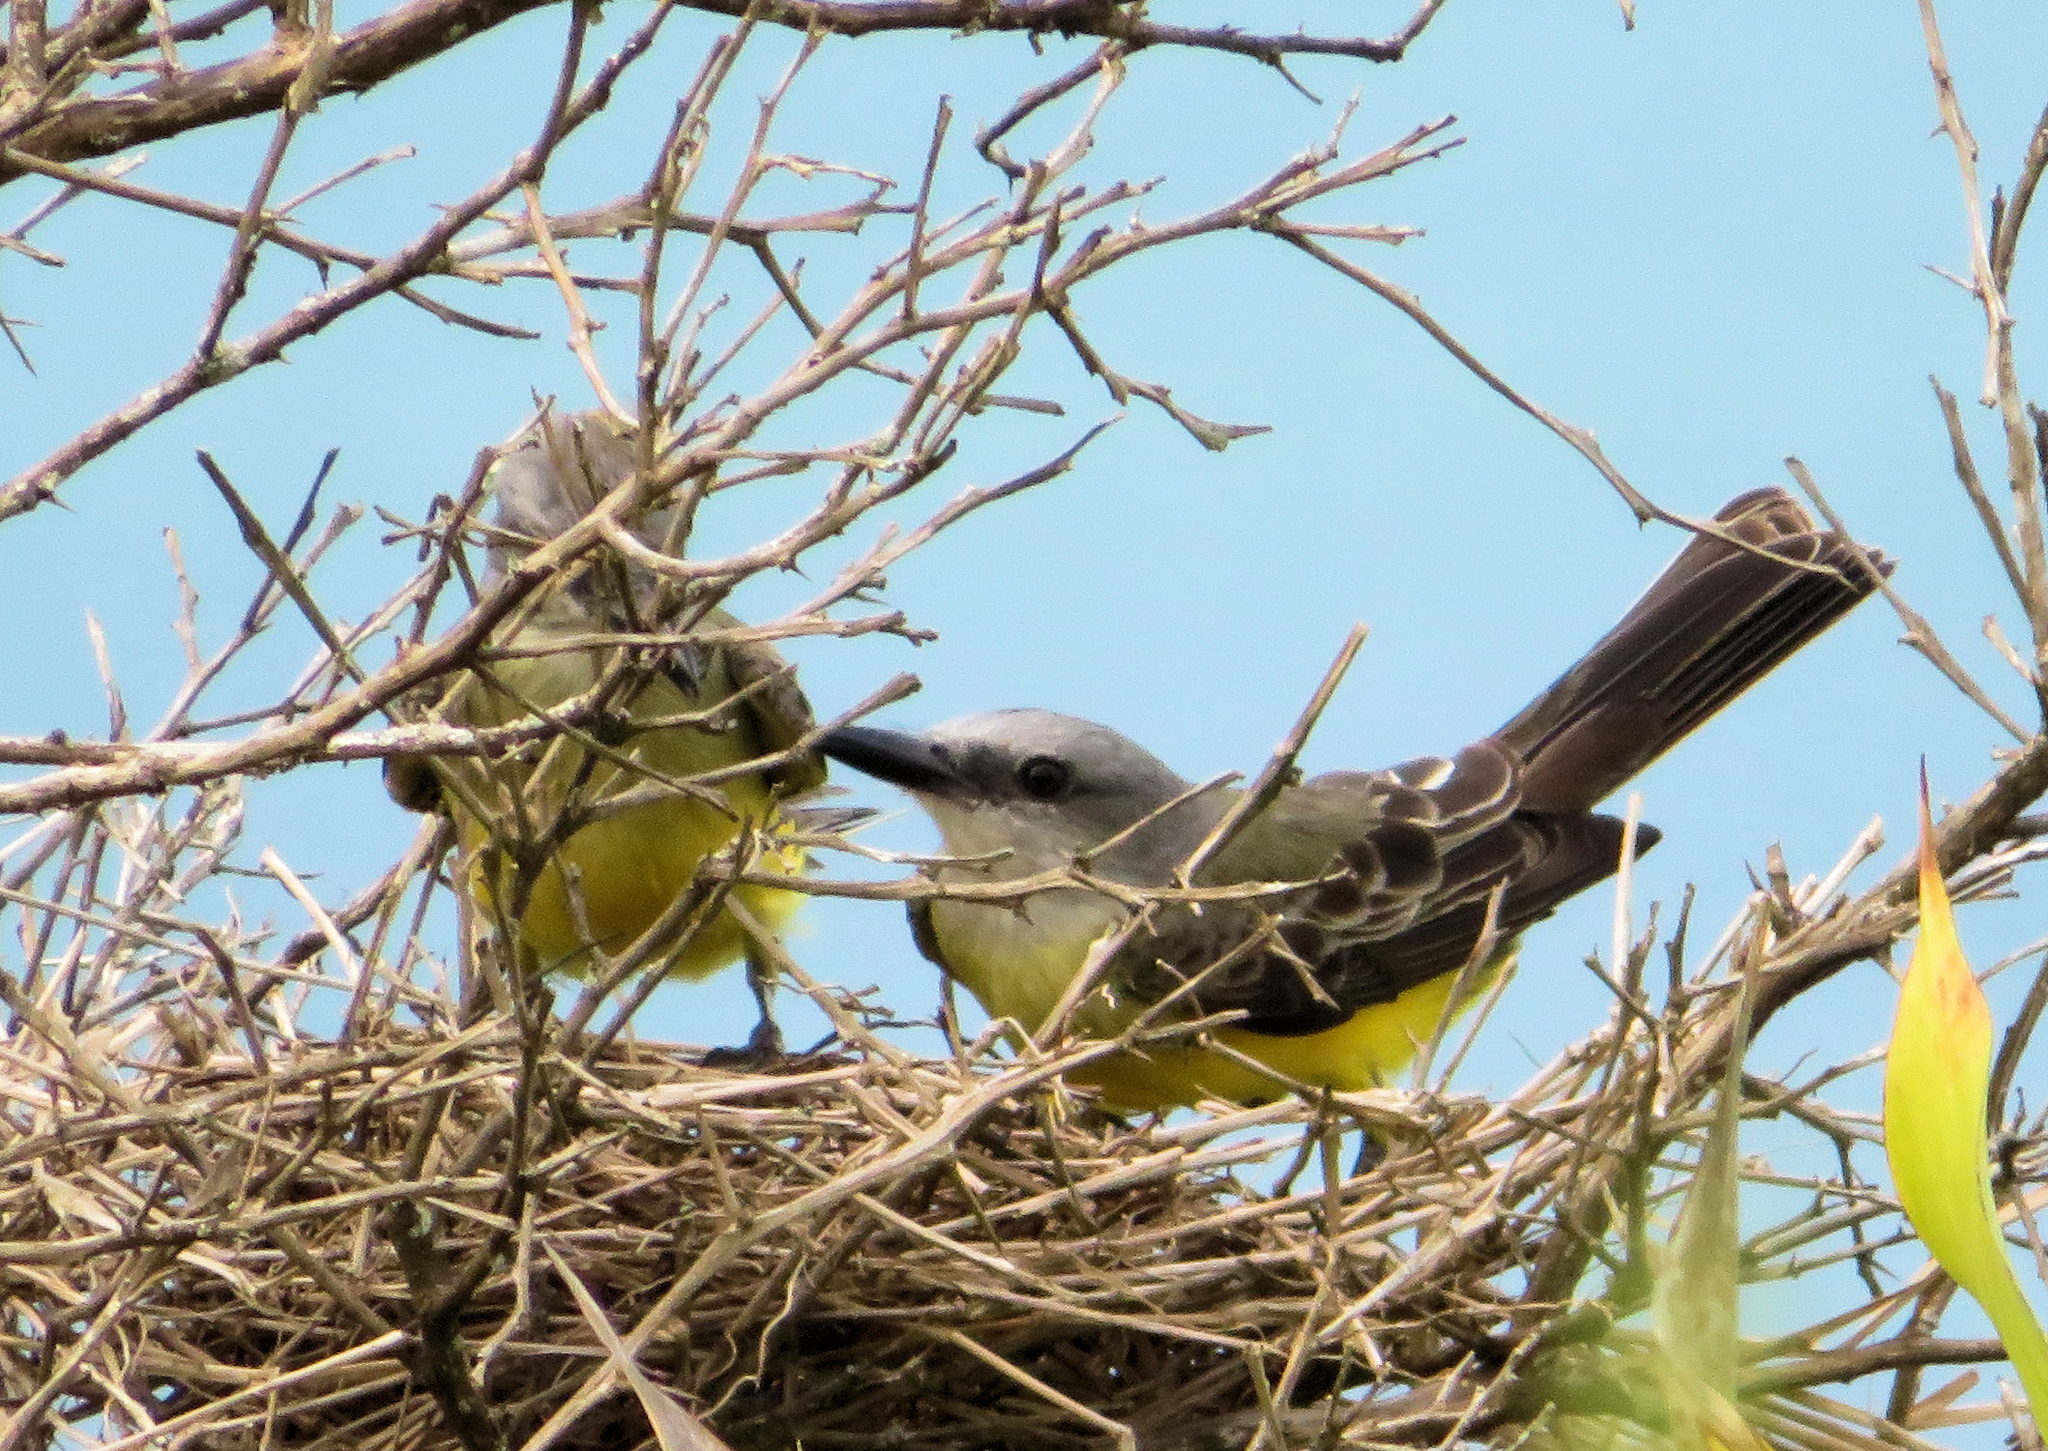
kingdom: Animalia
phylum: Chordata
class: Aves
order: Passeriformes
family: Tyrannidae
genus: Tyrannus
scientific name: Tyrannus melancholicus
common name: Tropical kingbird
